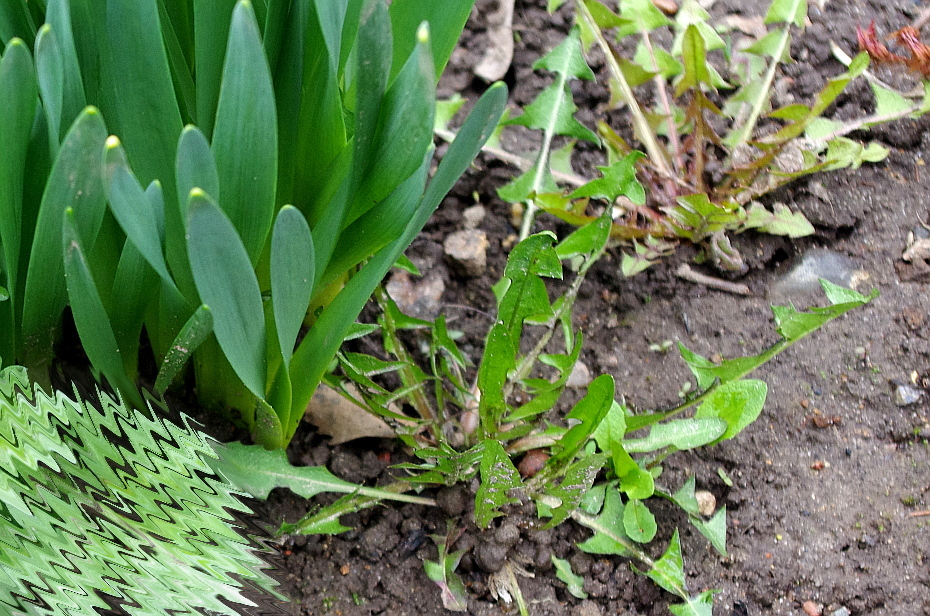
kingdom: Plantae
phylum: Tracheophyta
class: Magnoliopsida
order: Asterales
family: Asteraceae
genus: Taraxacum
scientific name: Taraxacum officinale
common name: Common dandelion
